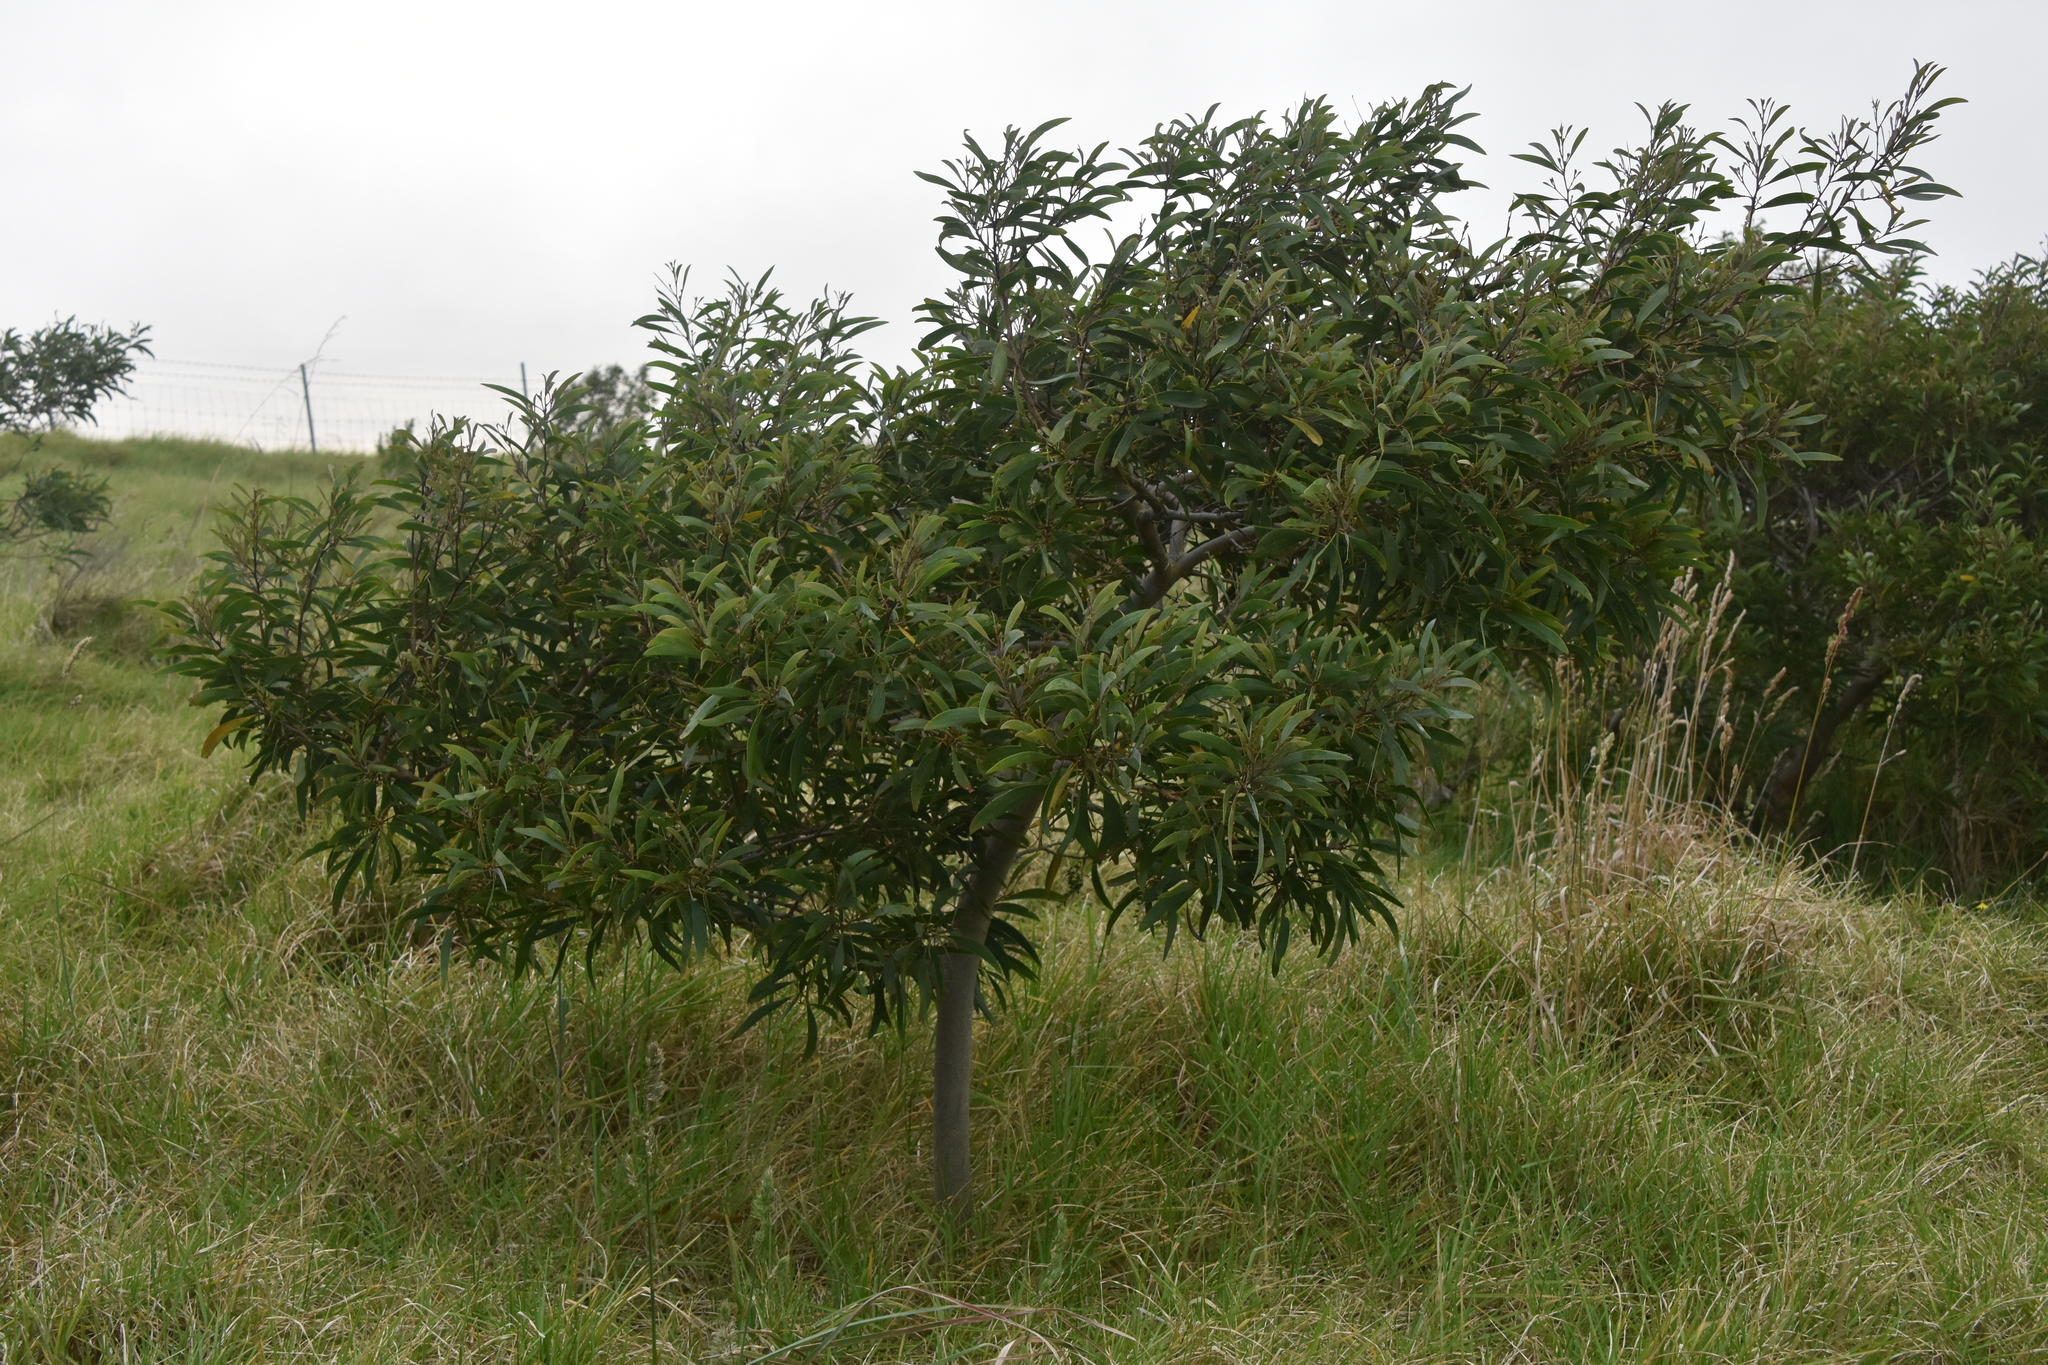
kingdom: Plantae
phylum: Tracheophyta
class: Magnoliopsida
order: Fabales
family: Fabaceae
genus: Acacia
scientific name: Acacia koa
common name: Gray koa
